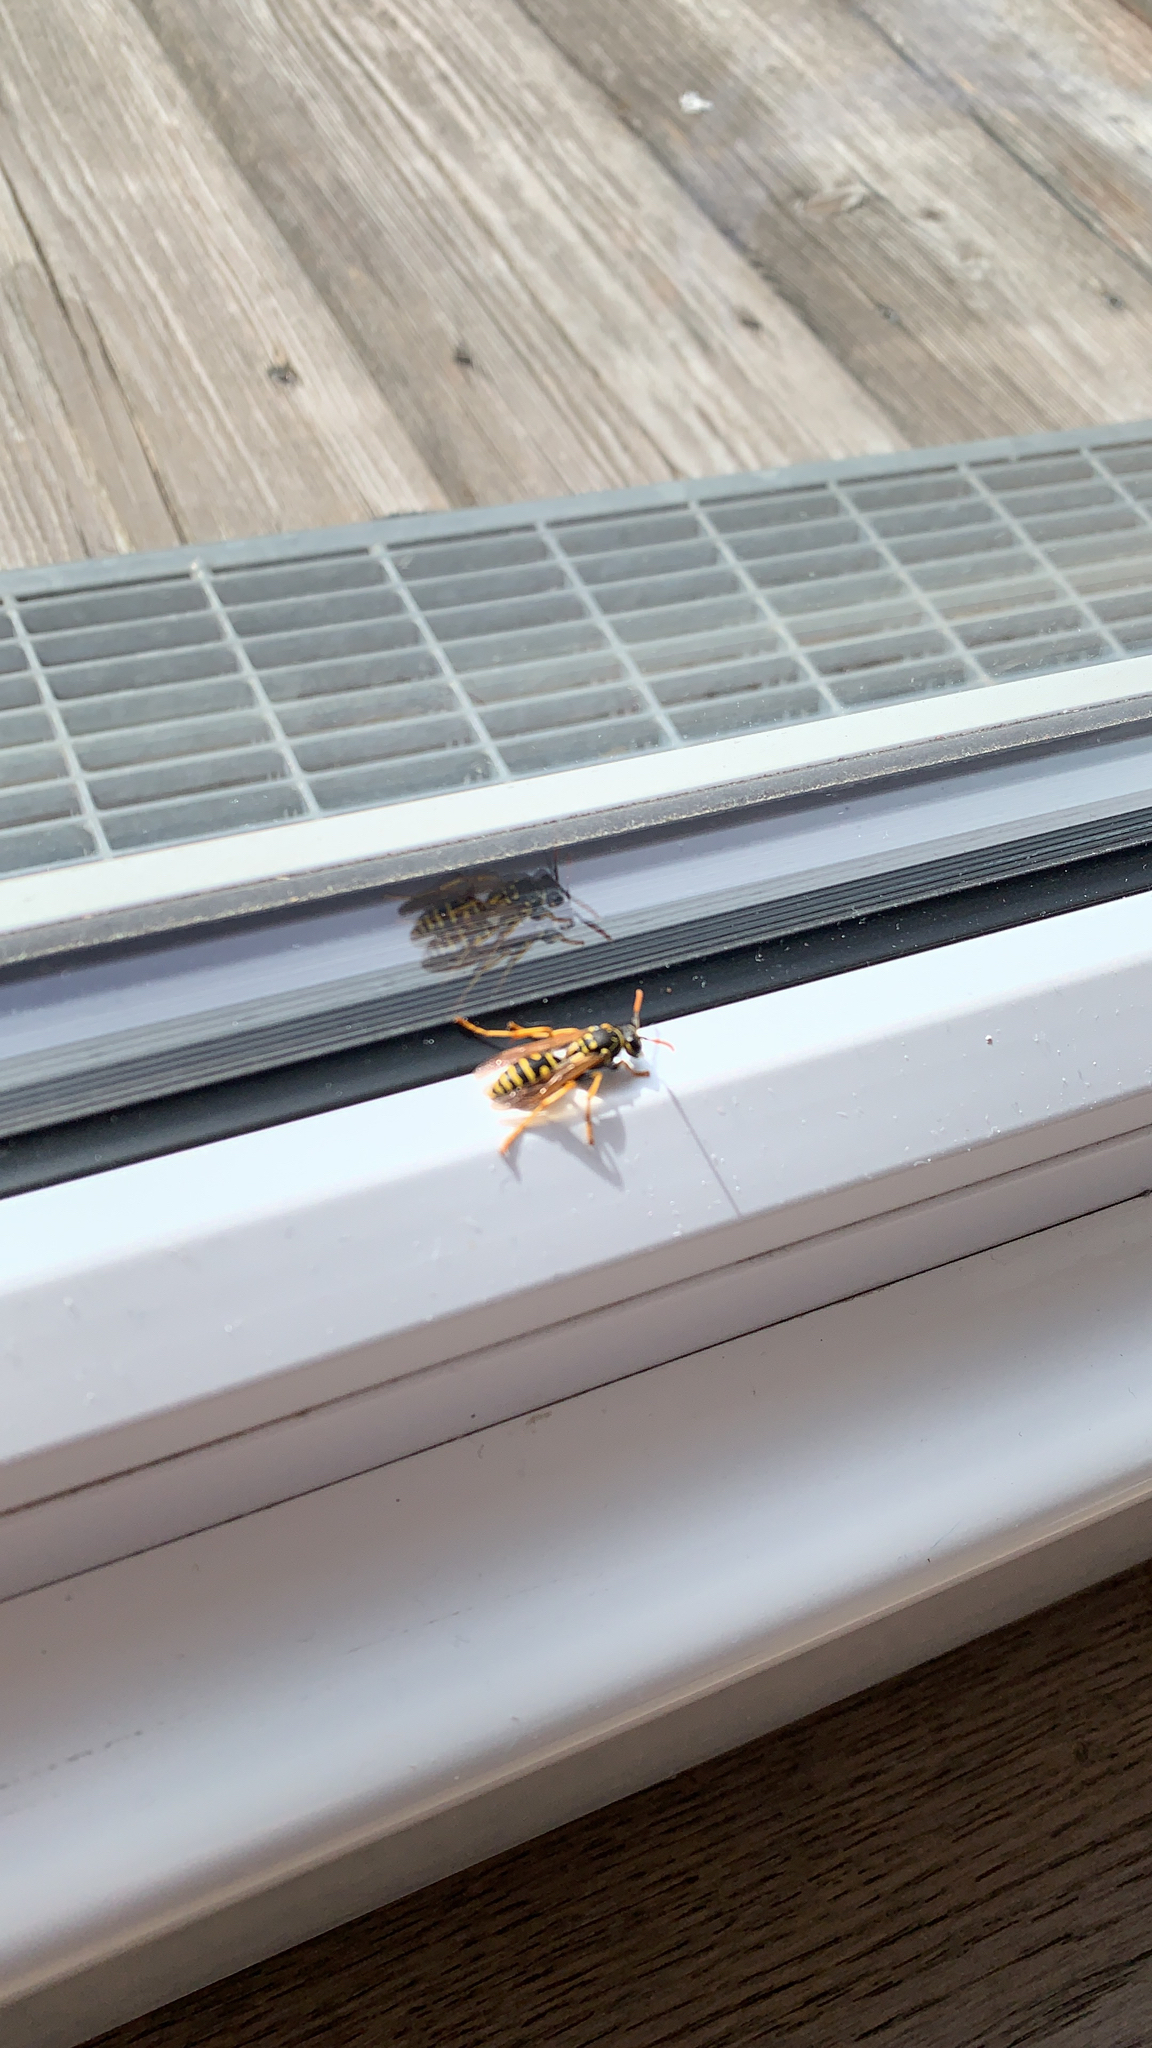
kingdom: Animalia
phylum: Arthropoda
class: Insecta
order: Hymenoptera
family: Eumenidae
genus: Polistes
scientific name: Polistes dominula
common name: Paper wasp
